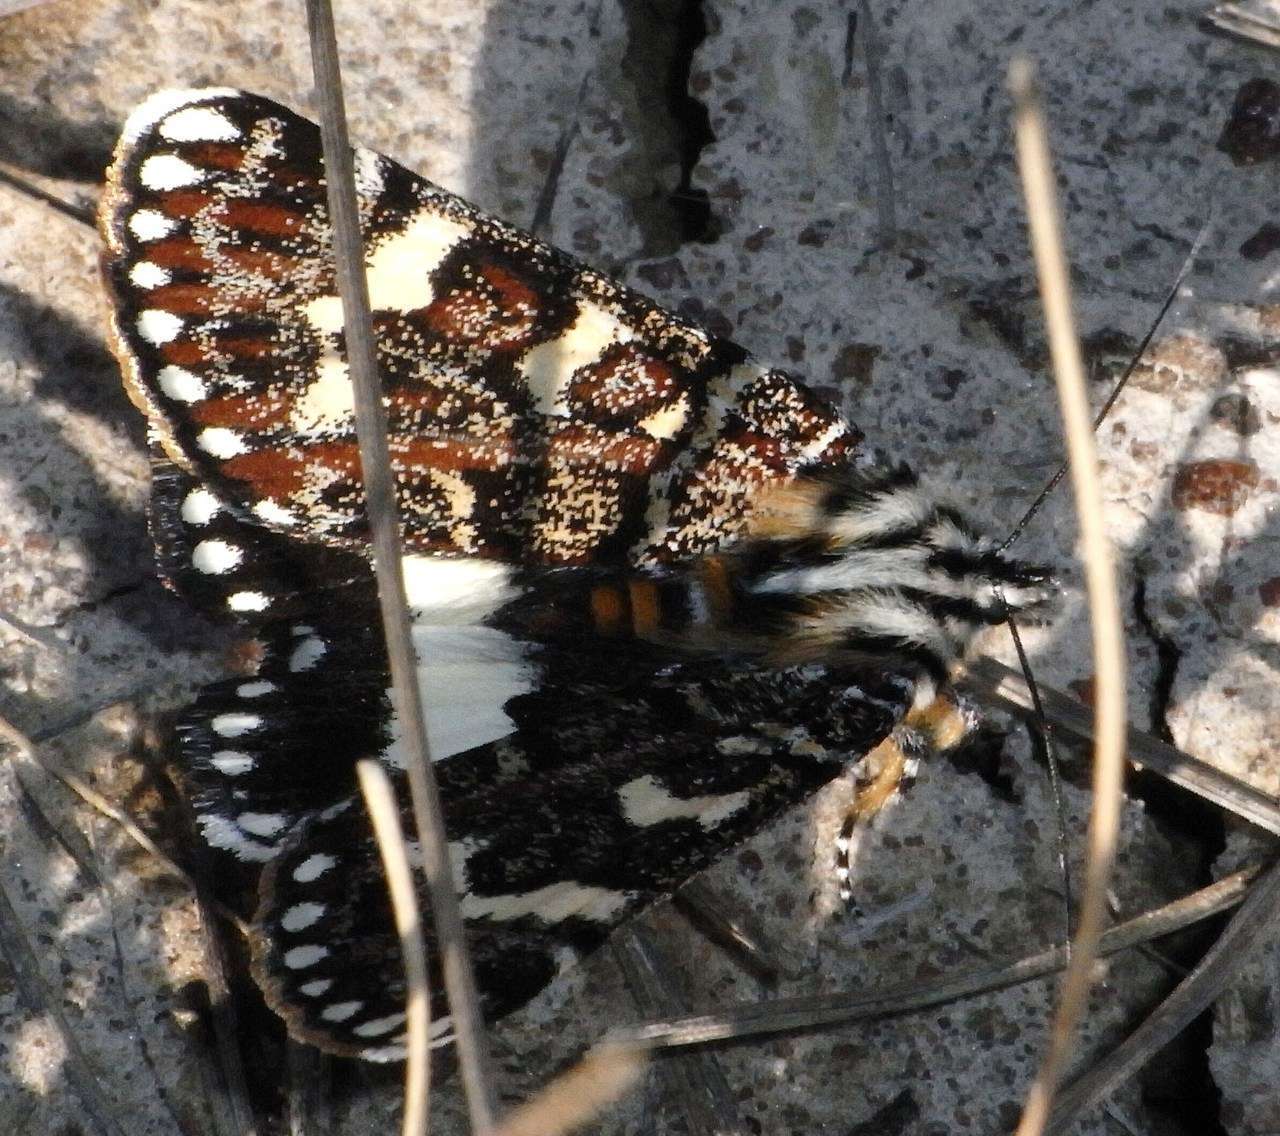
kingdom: Animalia
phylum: Arthropoda
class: Insecta
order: Lepidoptera
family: Noctuidae
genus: Apina
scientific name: Apina callisto
